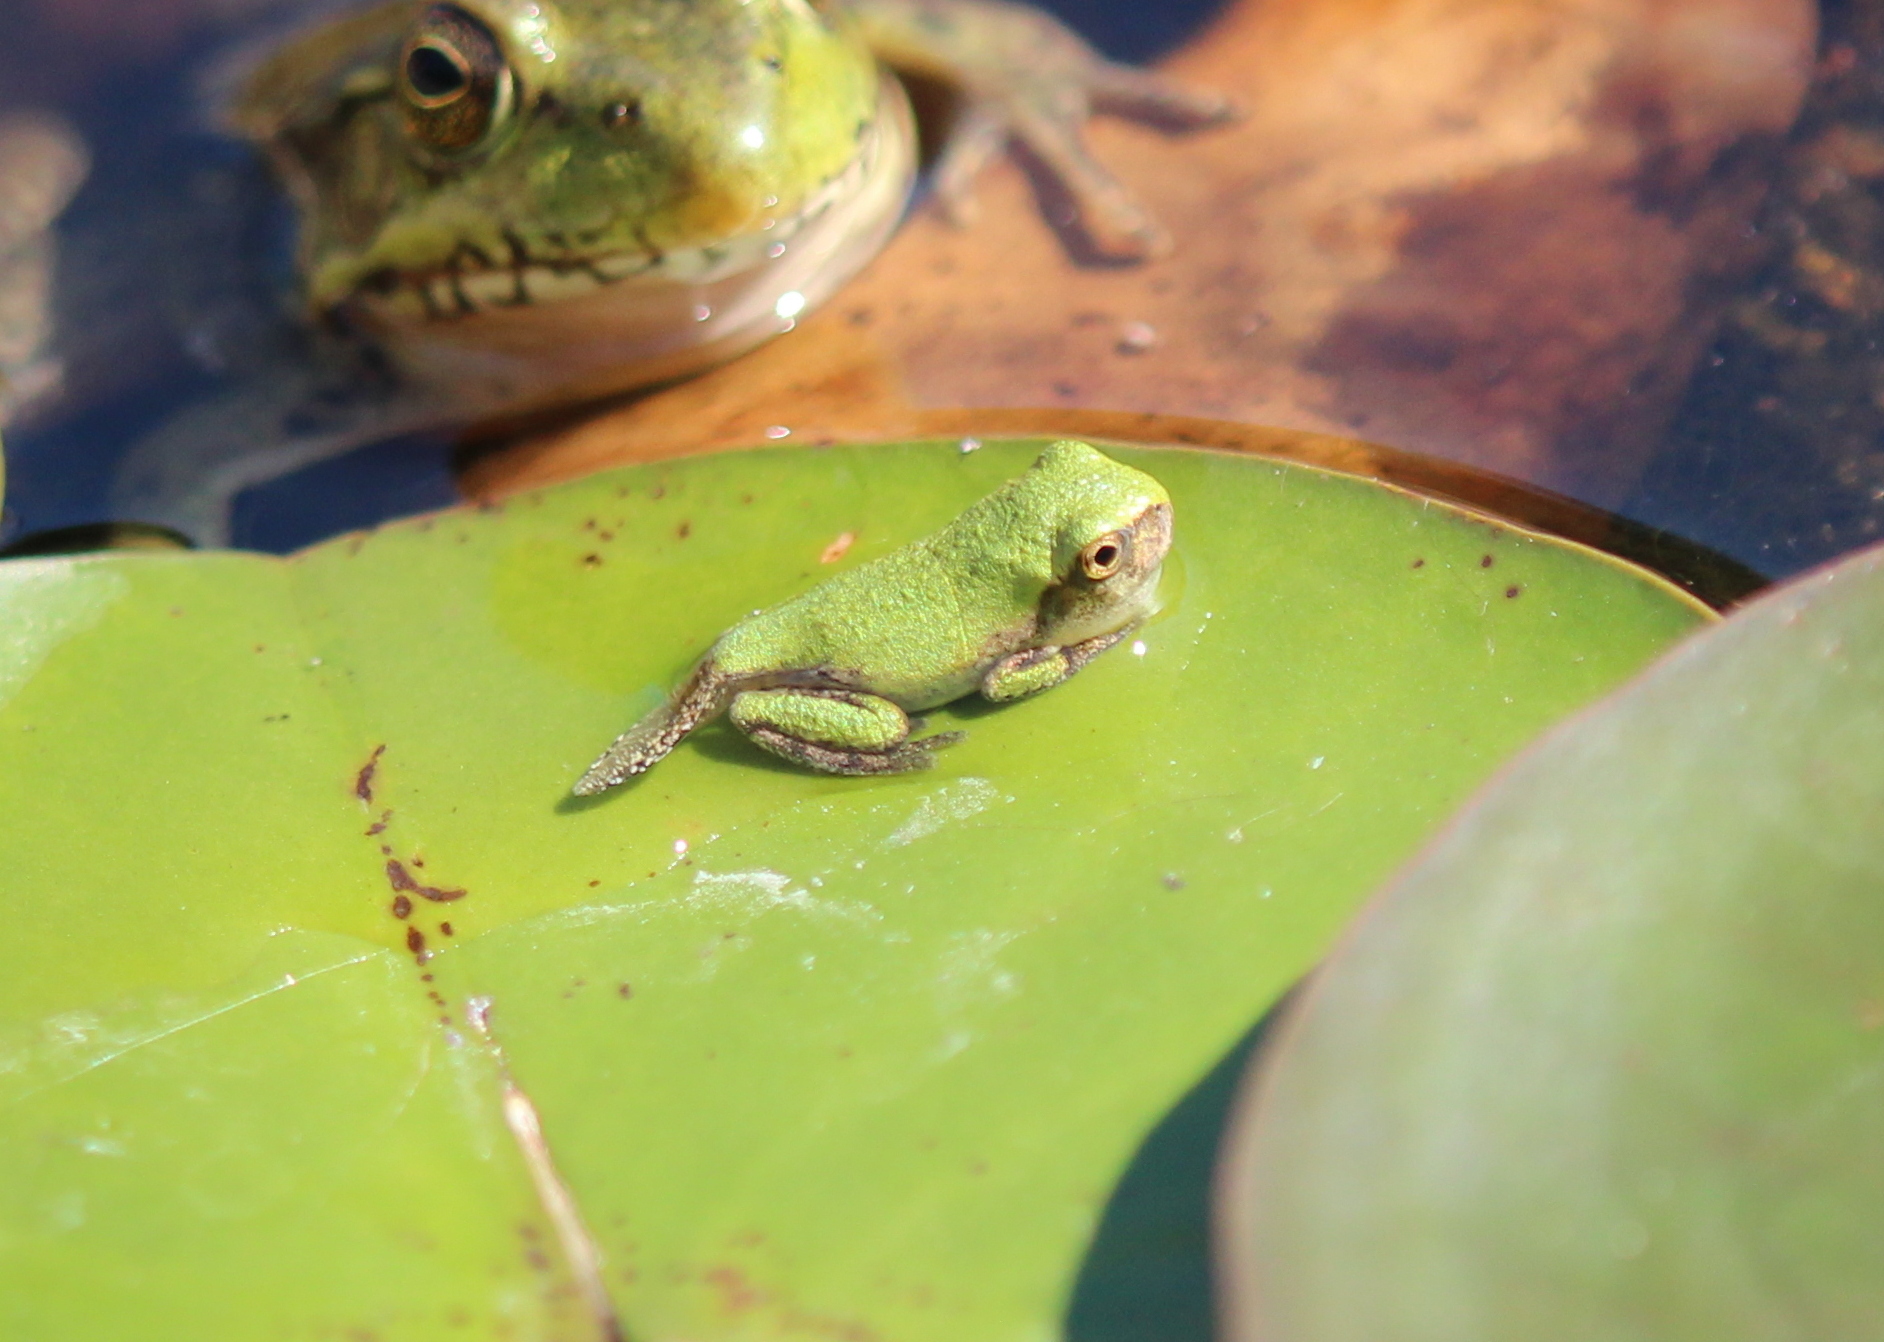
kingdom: Animalia
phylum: Chordata
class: Amphibia
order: Anura
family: Hylidae
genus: Dryophytes
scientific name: Dryophytes versicolor
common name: Gray treefrog
